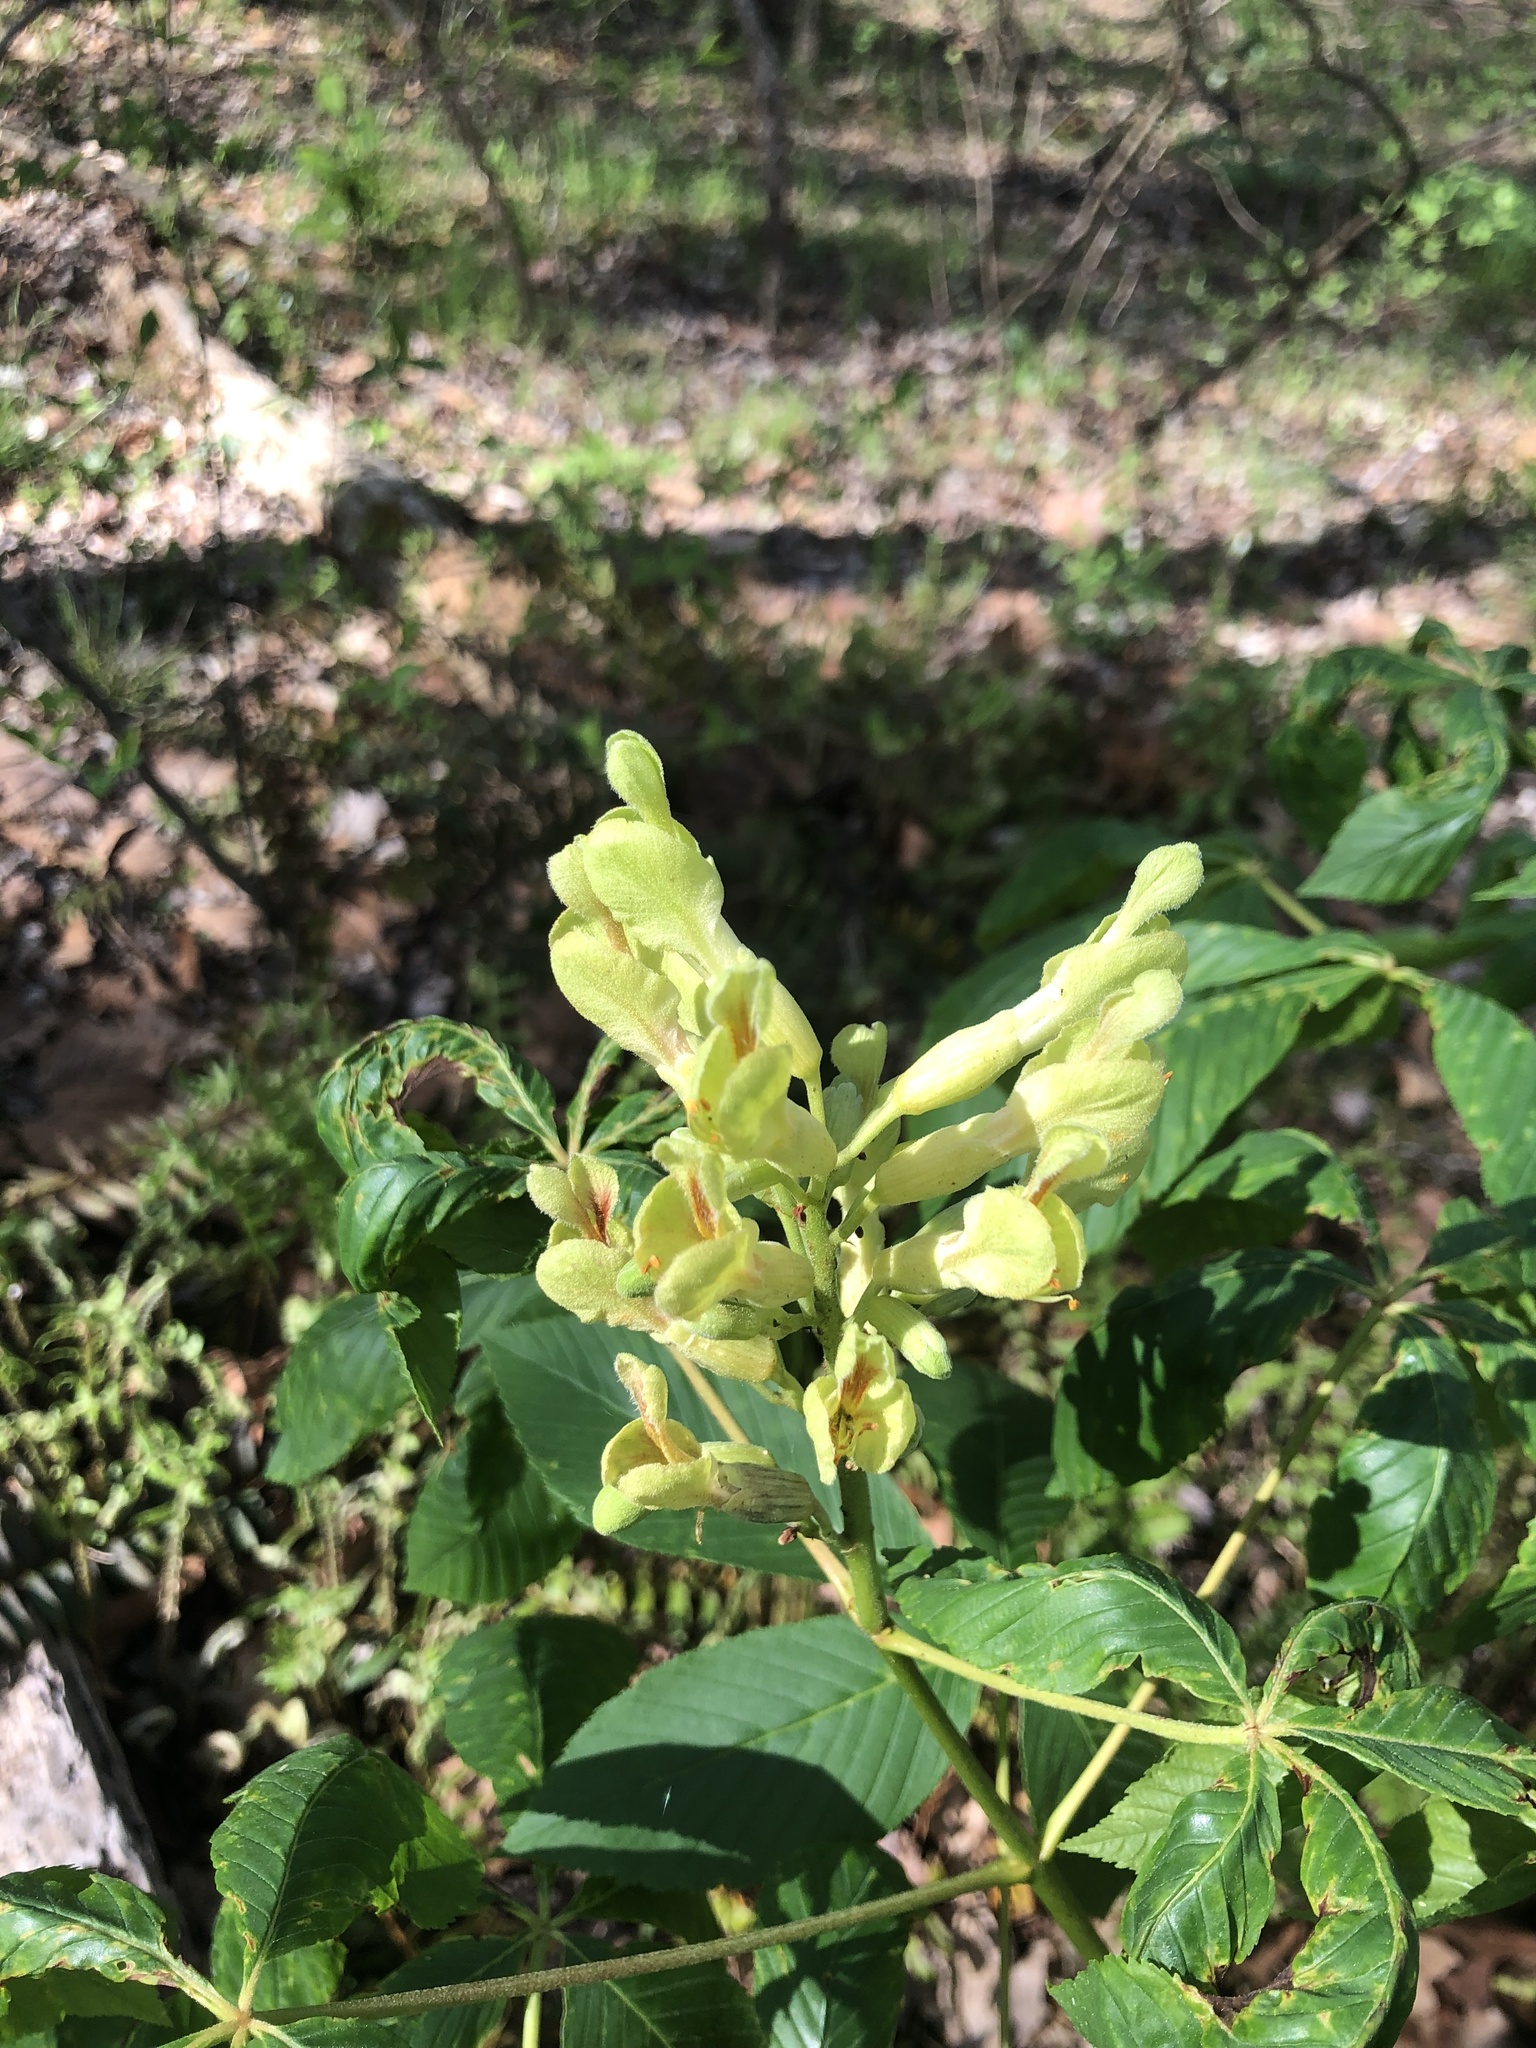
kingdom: Plantae
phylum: Tracheophyta
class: Magnoliopsida
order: Sapindales
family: Sapindaceae
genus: Aesculus
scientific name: Aesculus sylvatica
